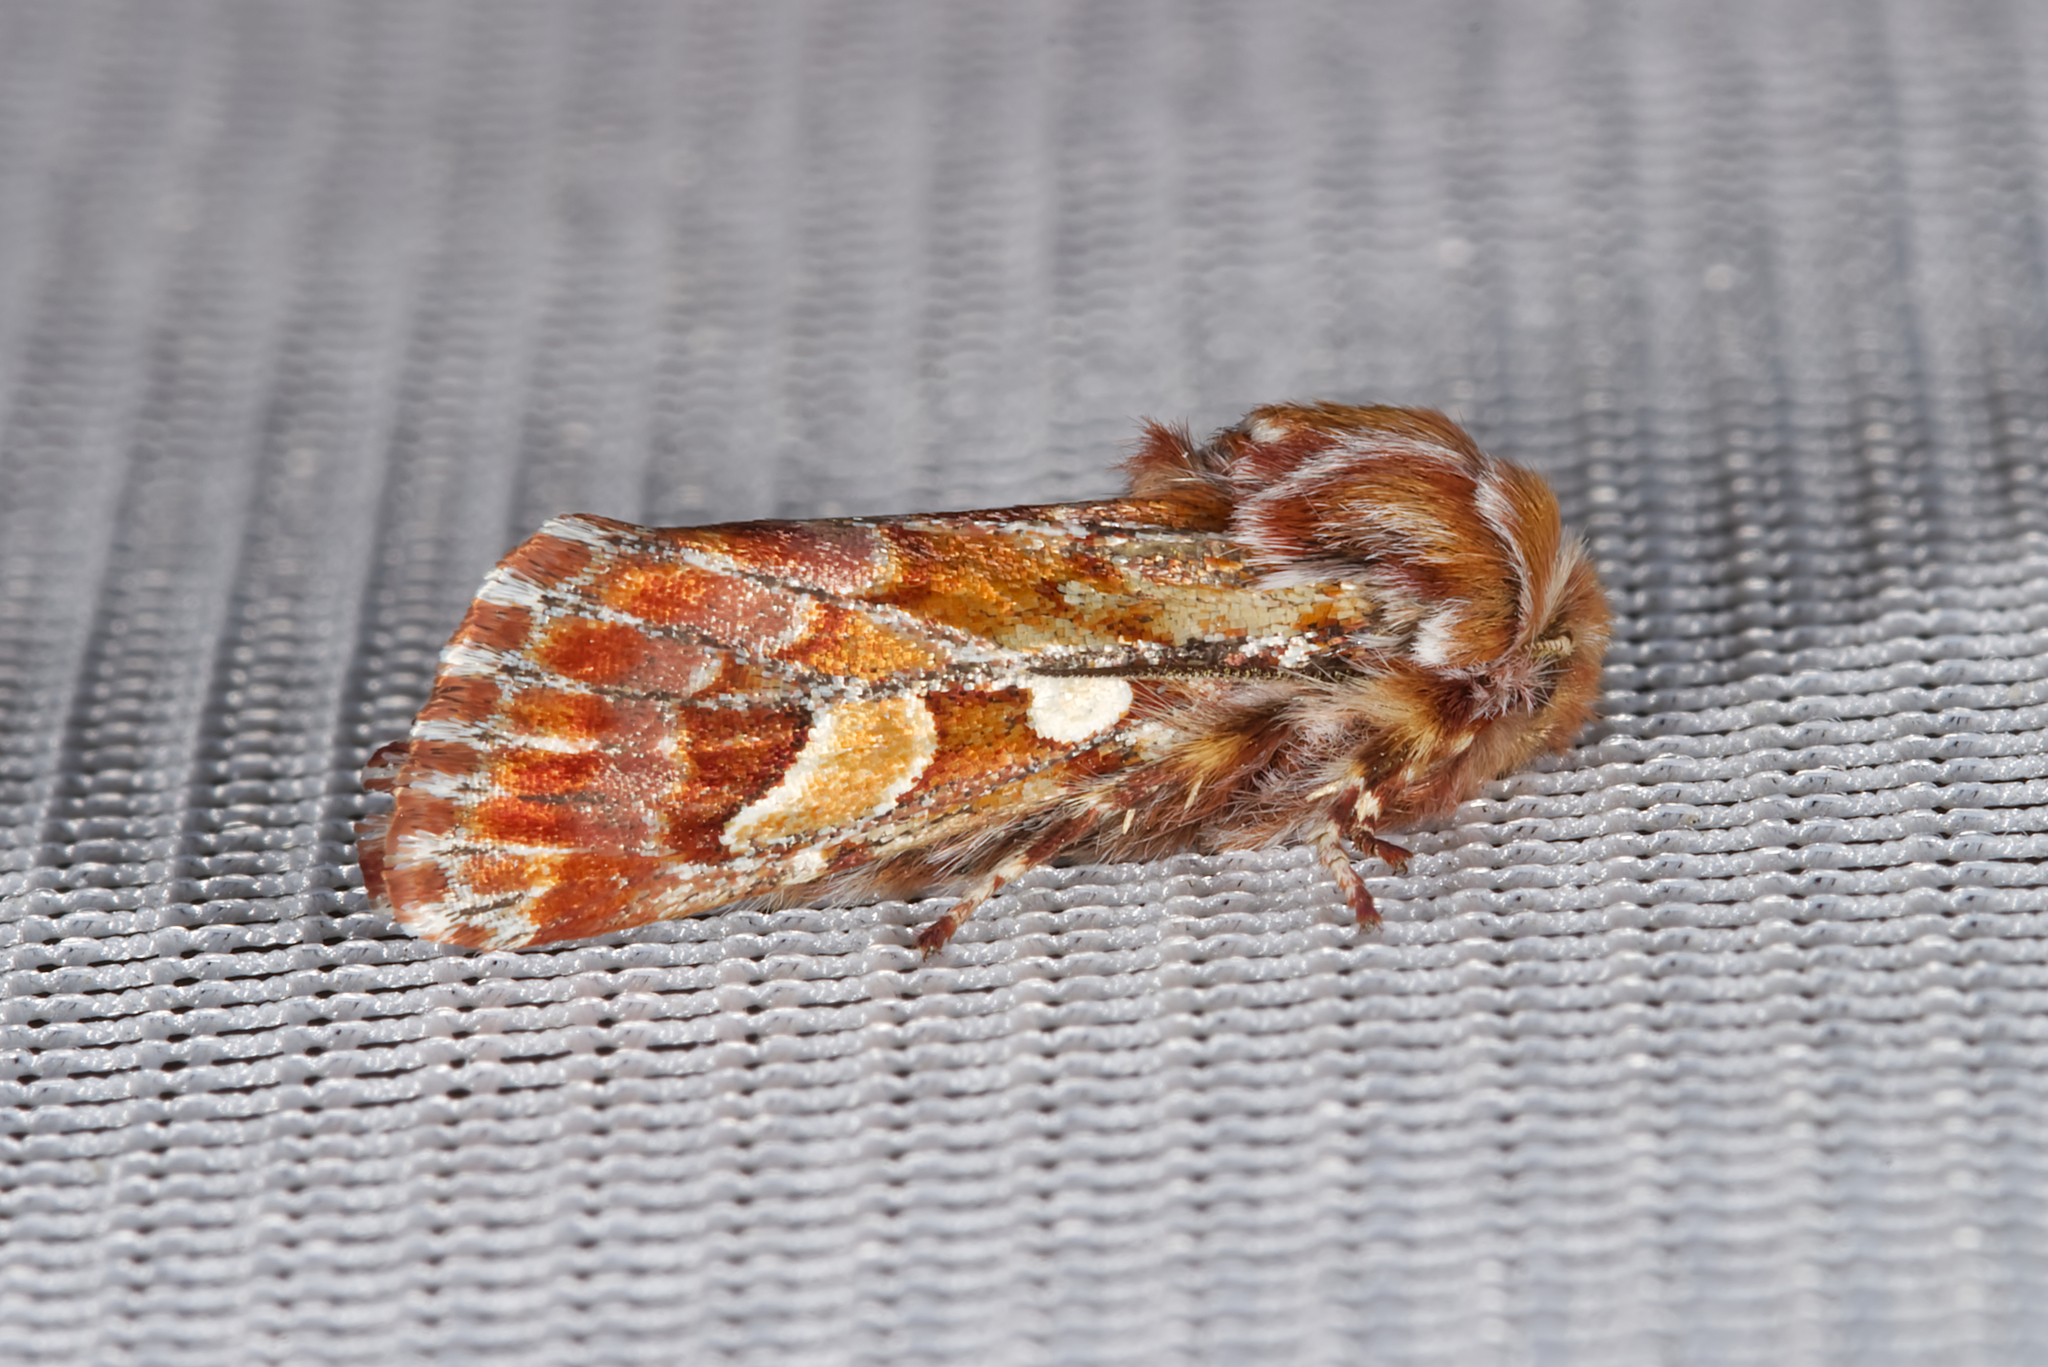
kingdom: Animalia
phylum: Arthropoda
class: Insecta
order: Lepidoptera
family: Noctuidae
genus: Panolis
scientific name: Panolis flammea
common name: Pine beauty
